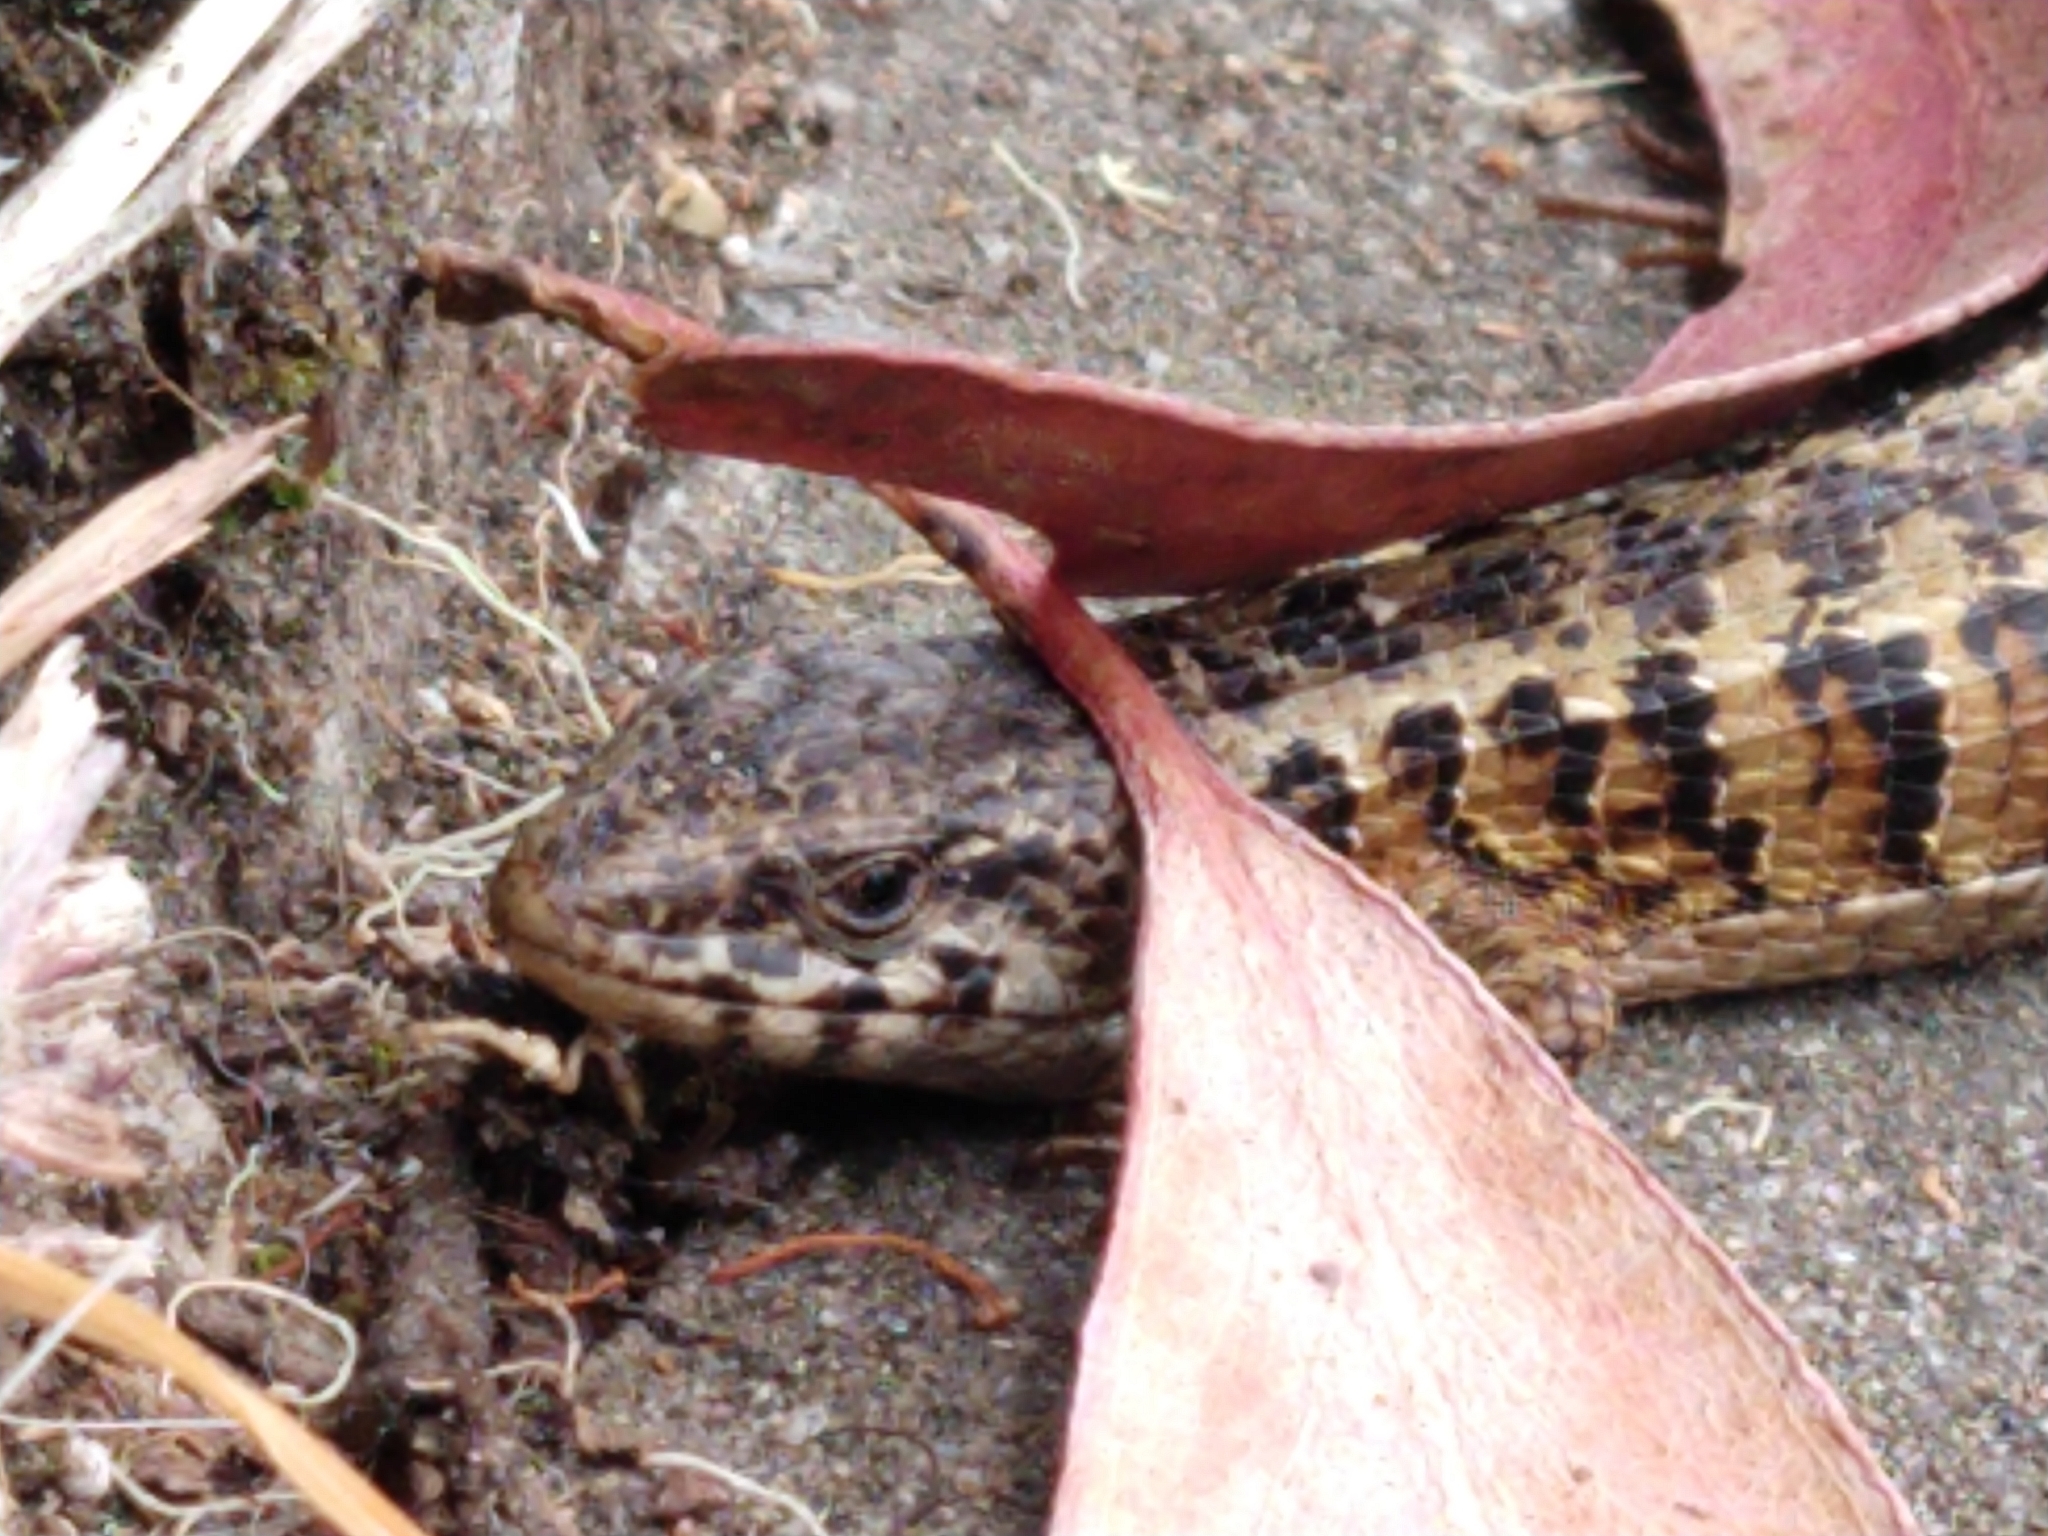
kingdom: Animalia
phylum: Chordata
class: Squamata
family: Anguidae
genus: Elgaria
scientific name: Elgaria coerulea
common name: Northern alligator lizard
